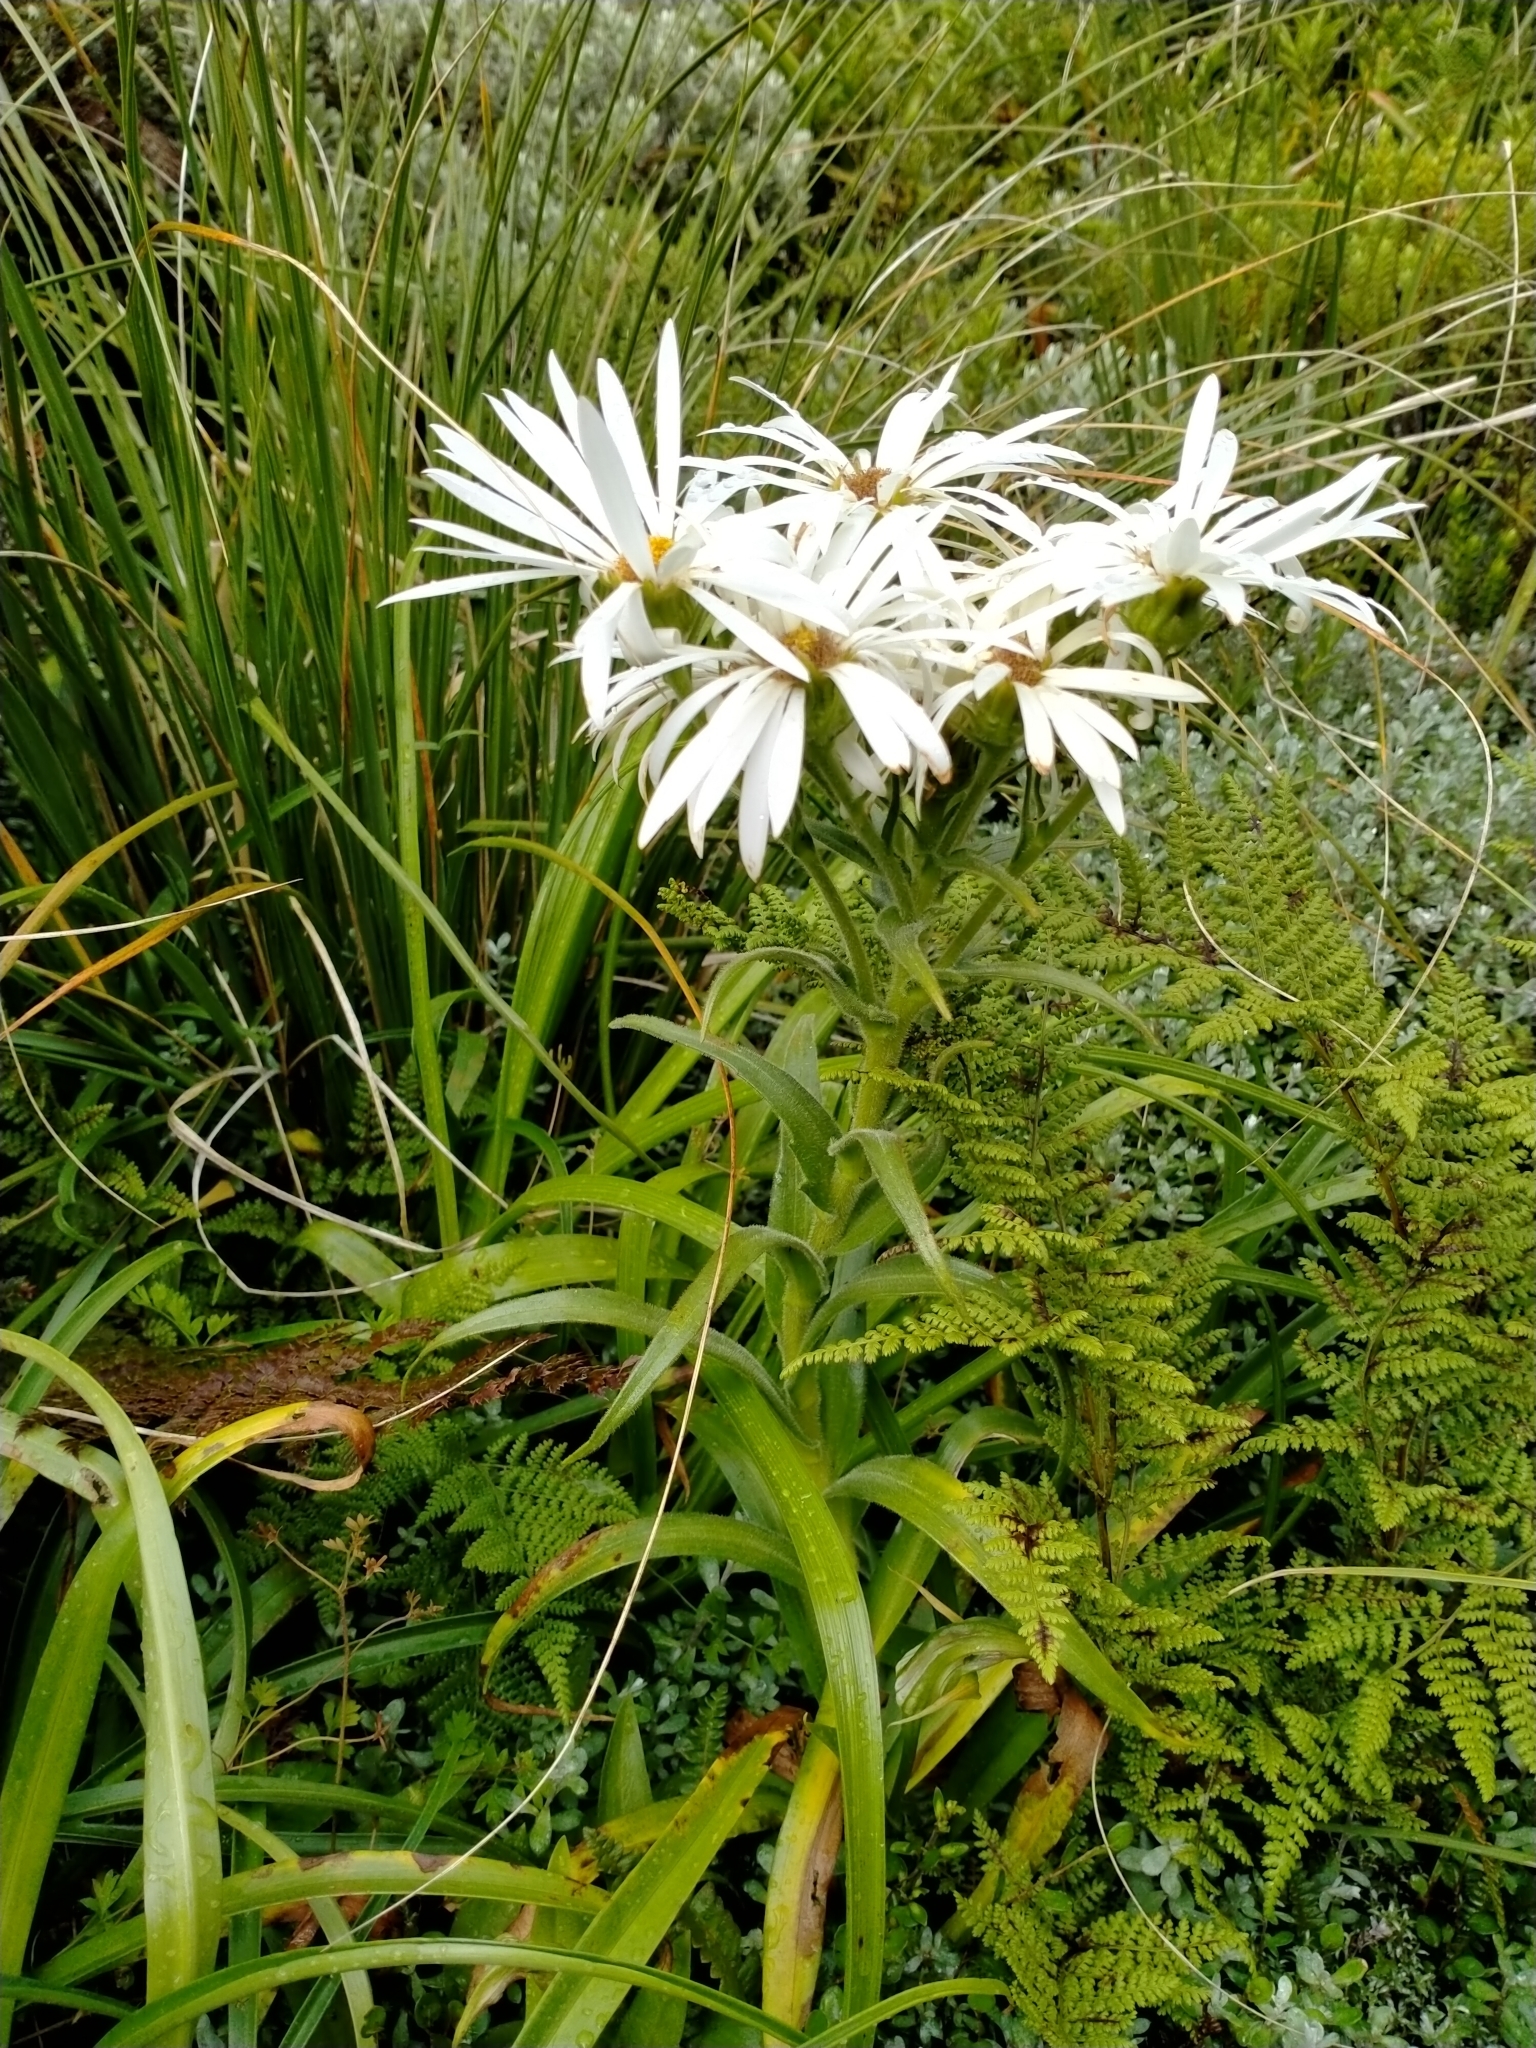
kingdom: Plantae
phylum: Tracheophyta
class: Magnoliopsida
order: Asterales
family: Asteraceae
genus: Dolichoglottis
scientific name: Dolichoglottis scorzoneroides
